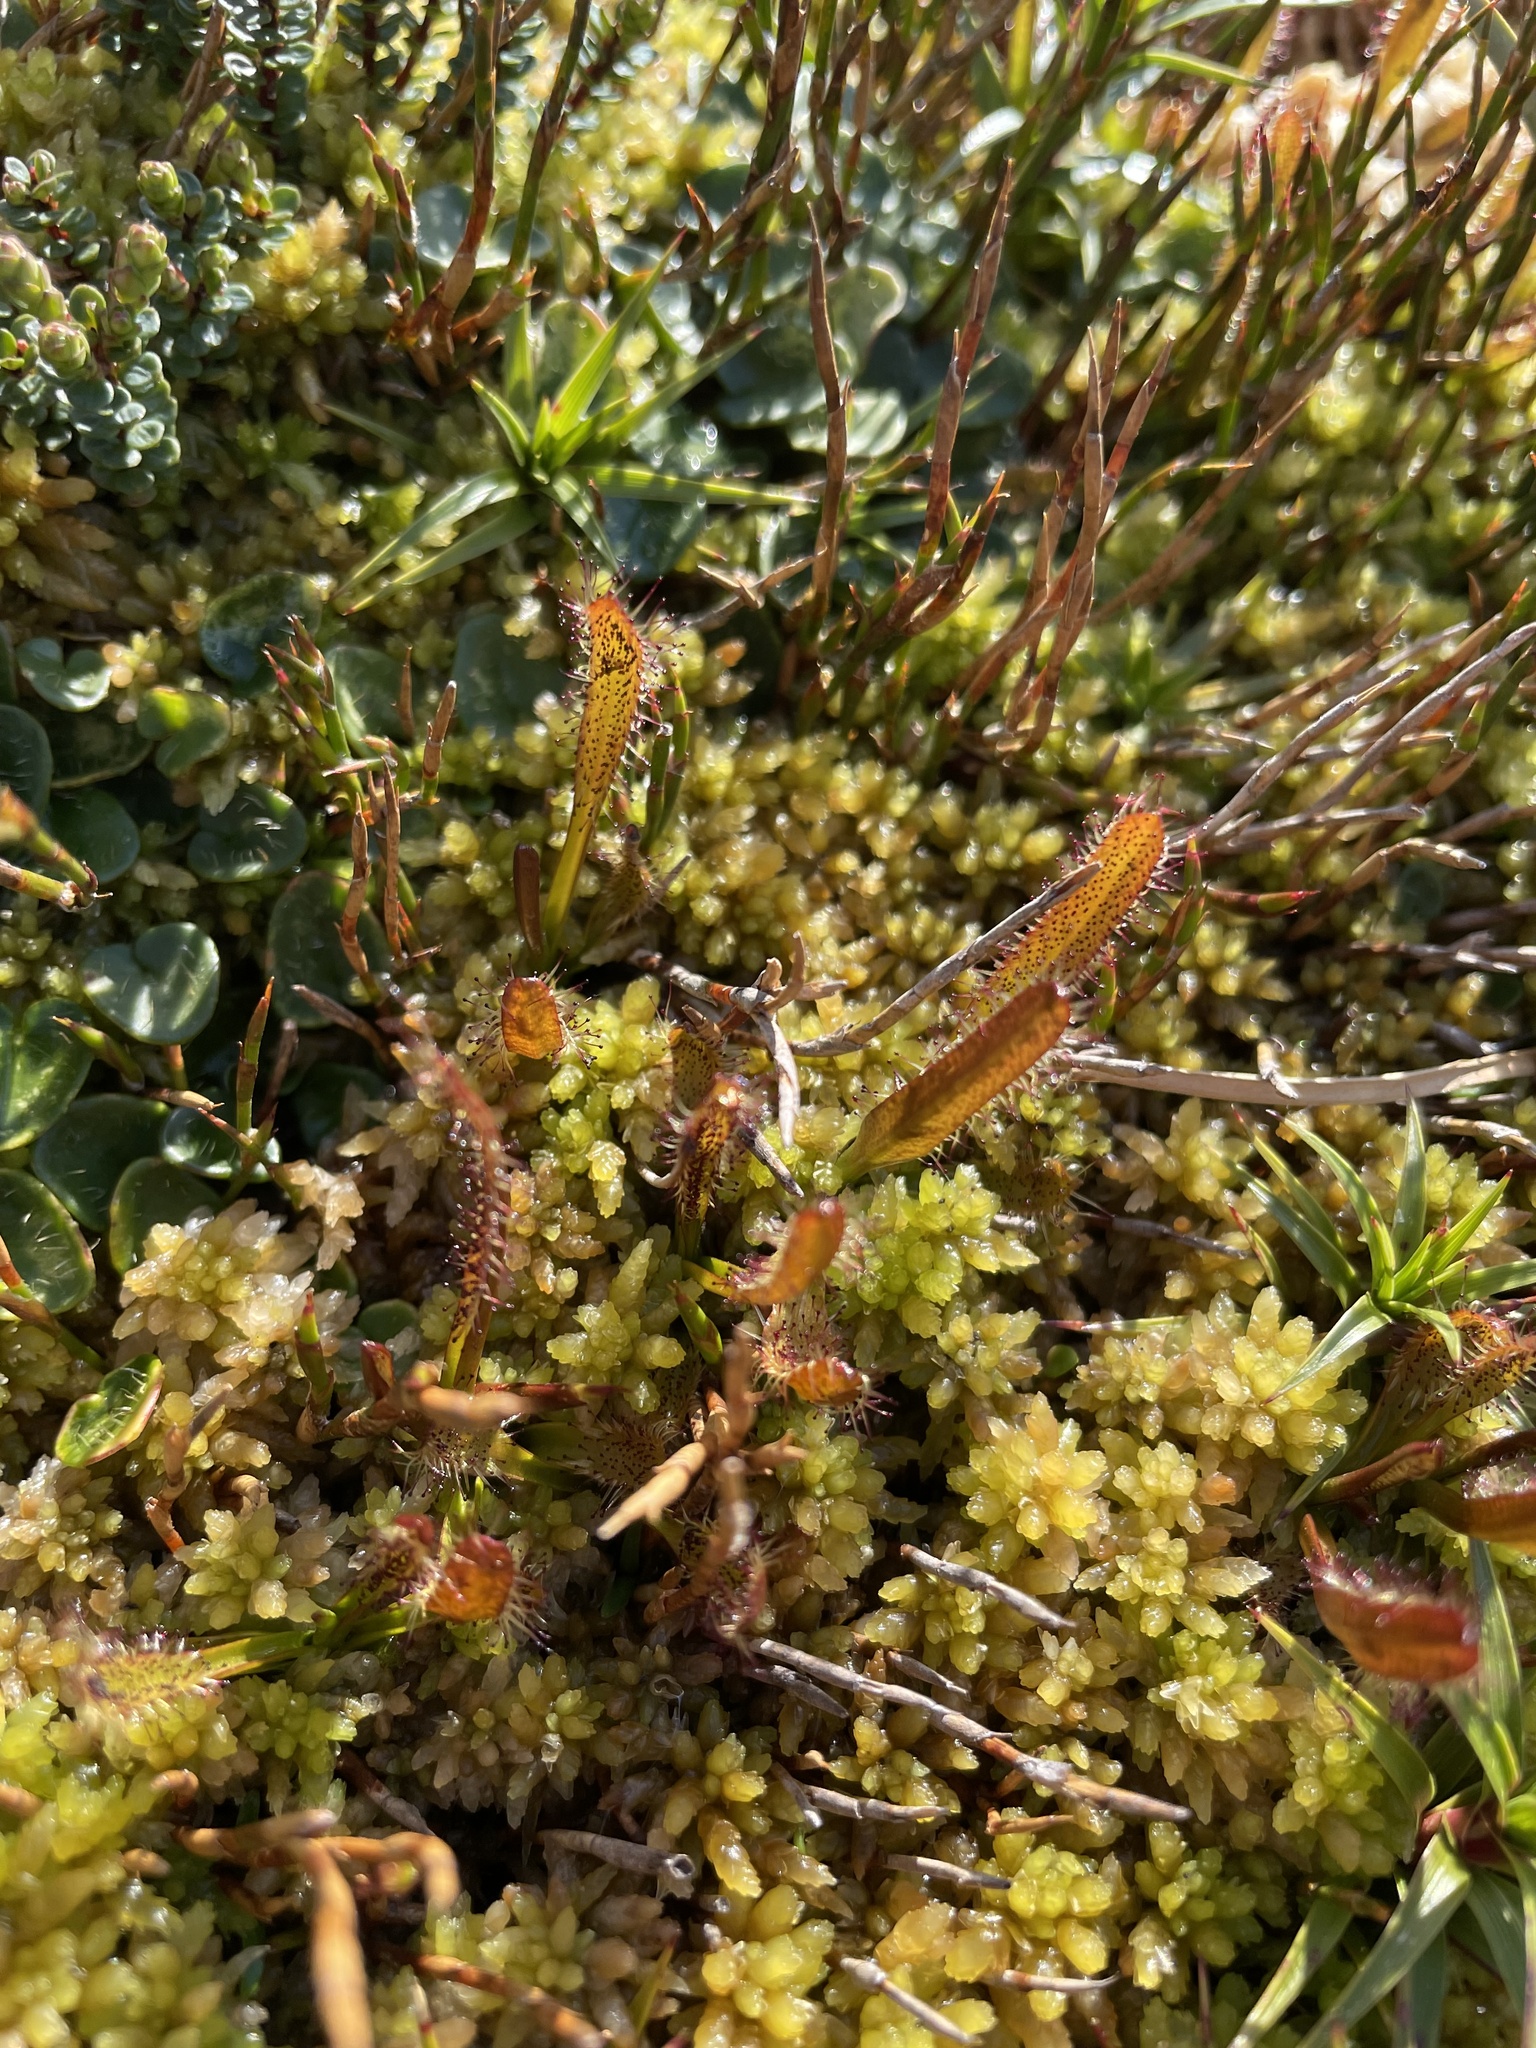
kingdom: Plantae
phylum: Tracheophyta
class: Magnoliopsida
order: Caryophyllales
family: Droseraceae
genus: Drosera
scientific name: Drosera arcturi
